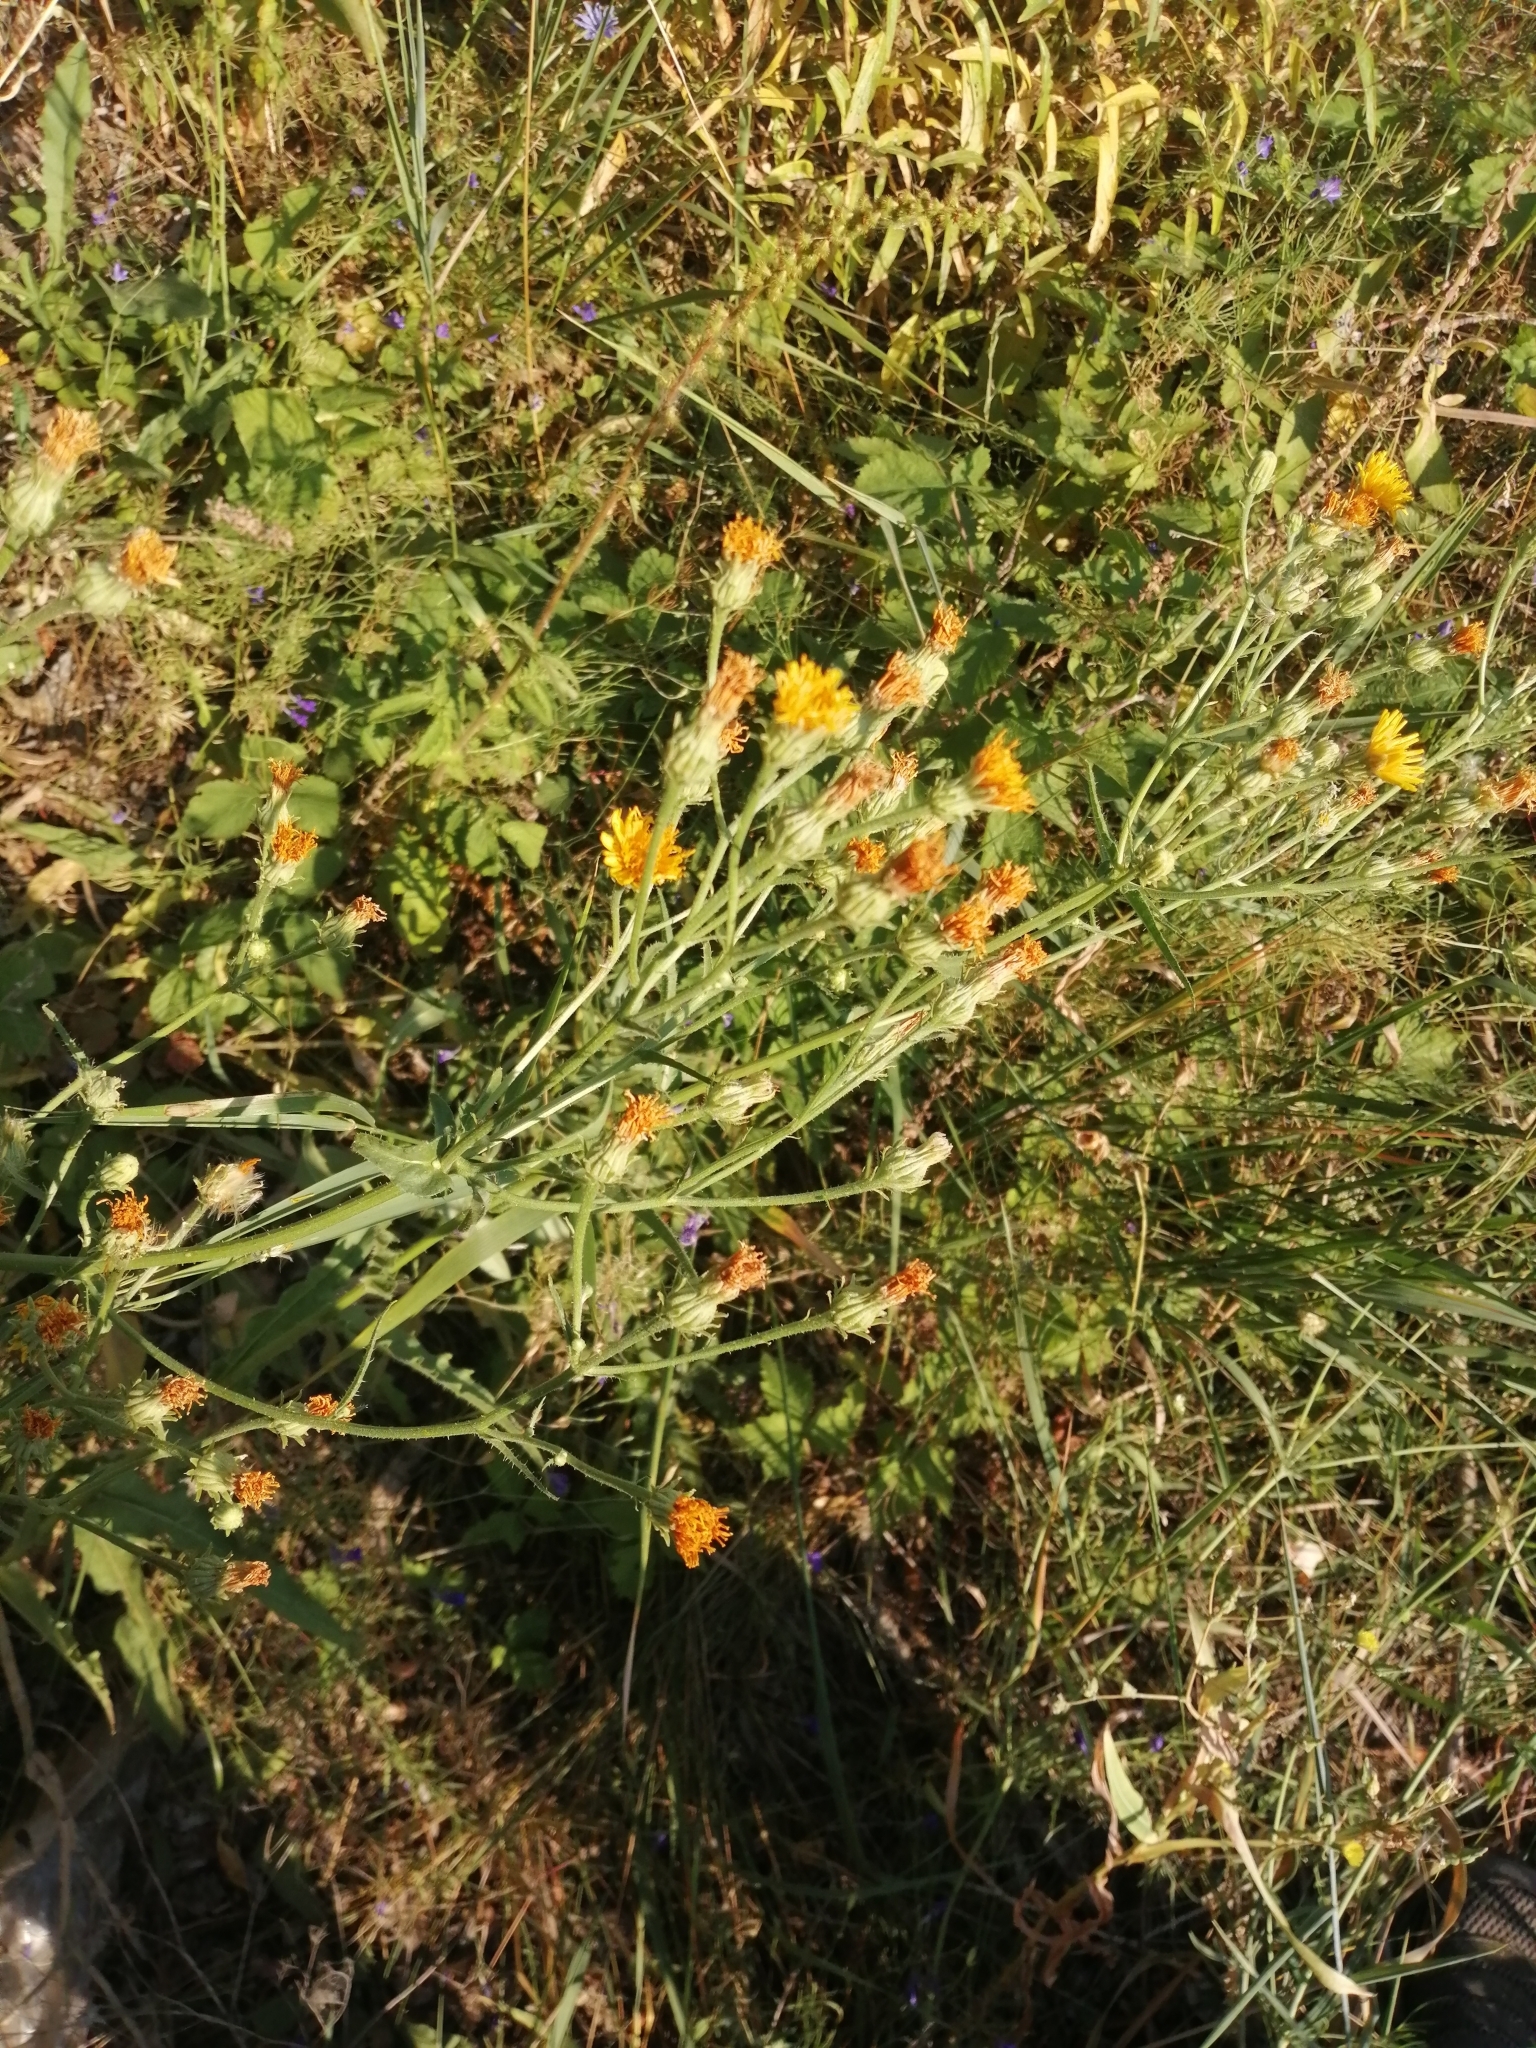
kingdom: Plantae
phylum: Tracheophyta
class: Magnoliopsida
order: Asterales
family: Asteraceae
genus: Picris
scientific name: Picris hieracioides
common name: Hawkweed oxtongue
